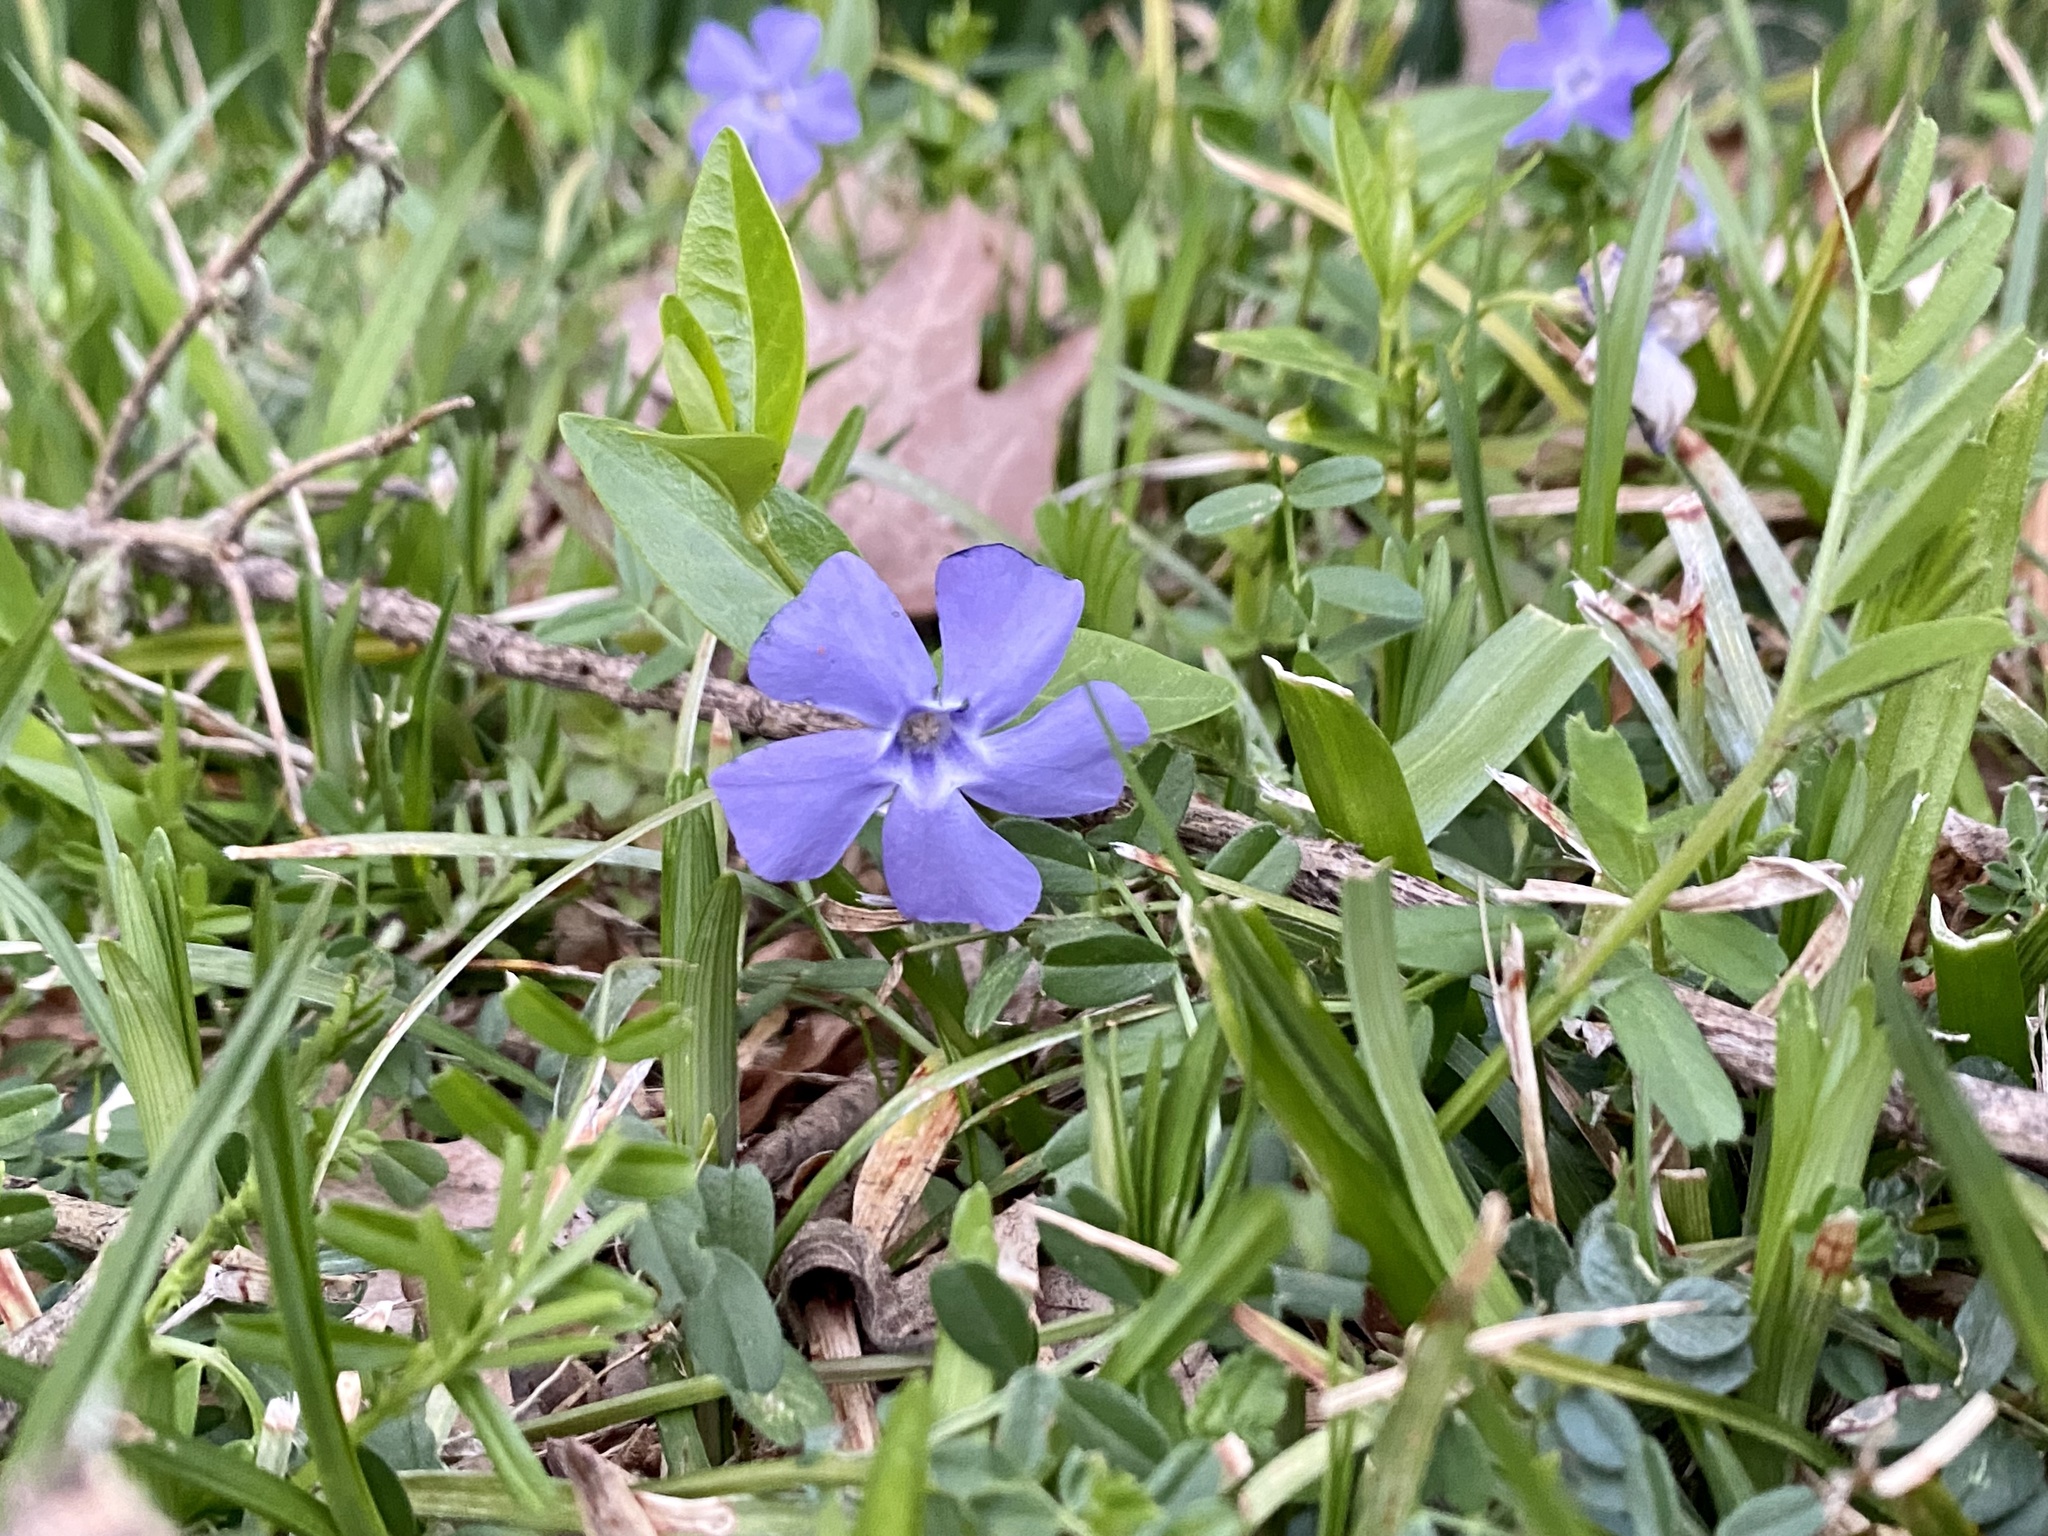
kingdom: Plantae
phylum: Tracheophyta
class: Magnoliopsida
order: Gentianales
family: Apocynaceae
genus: Vinca
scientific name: Vinca minor
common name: Lesser periwinkle
